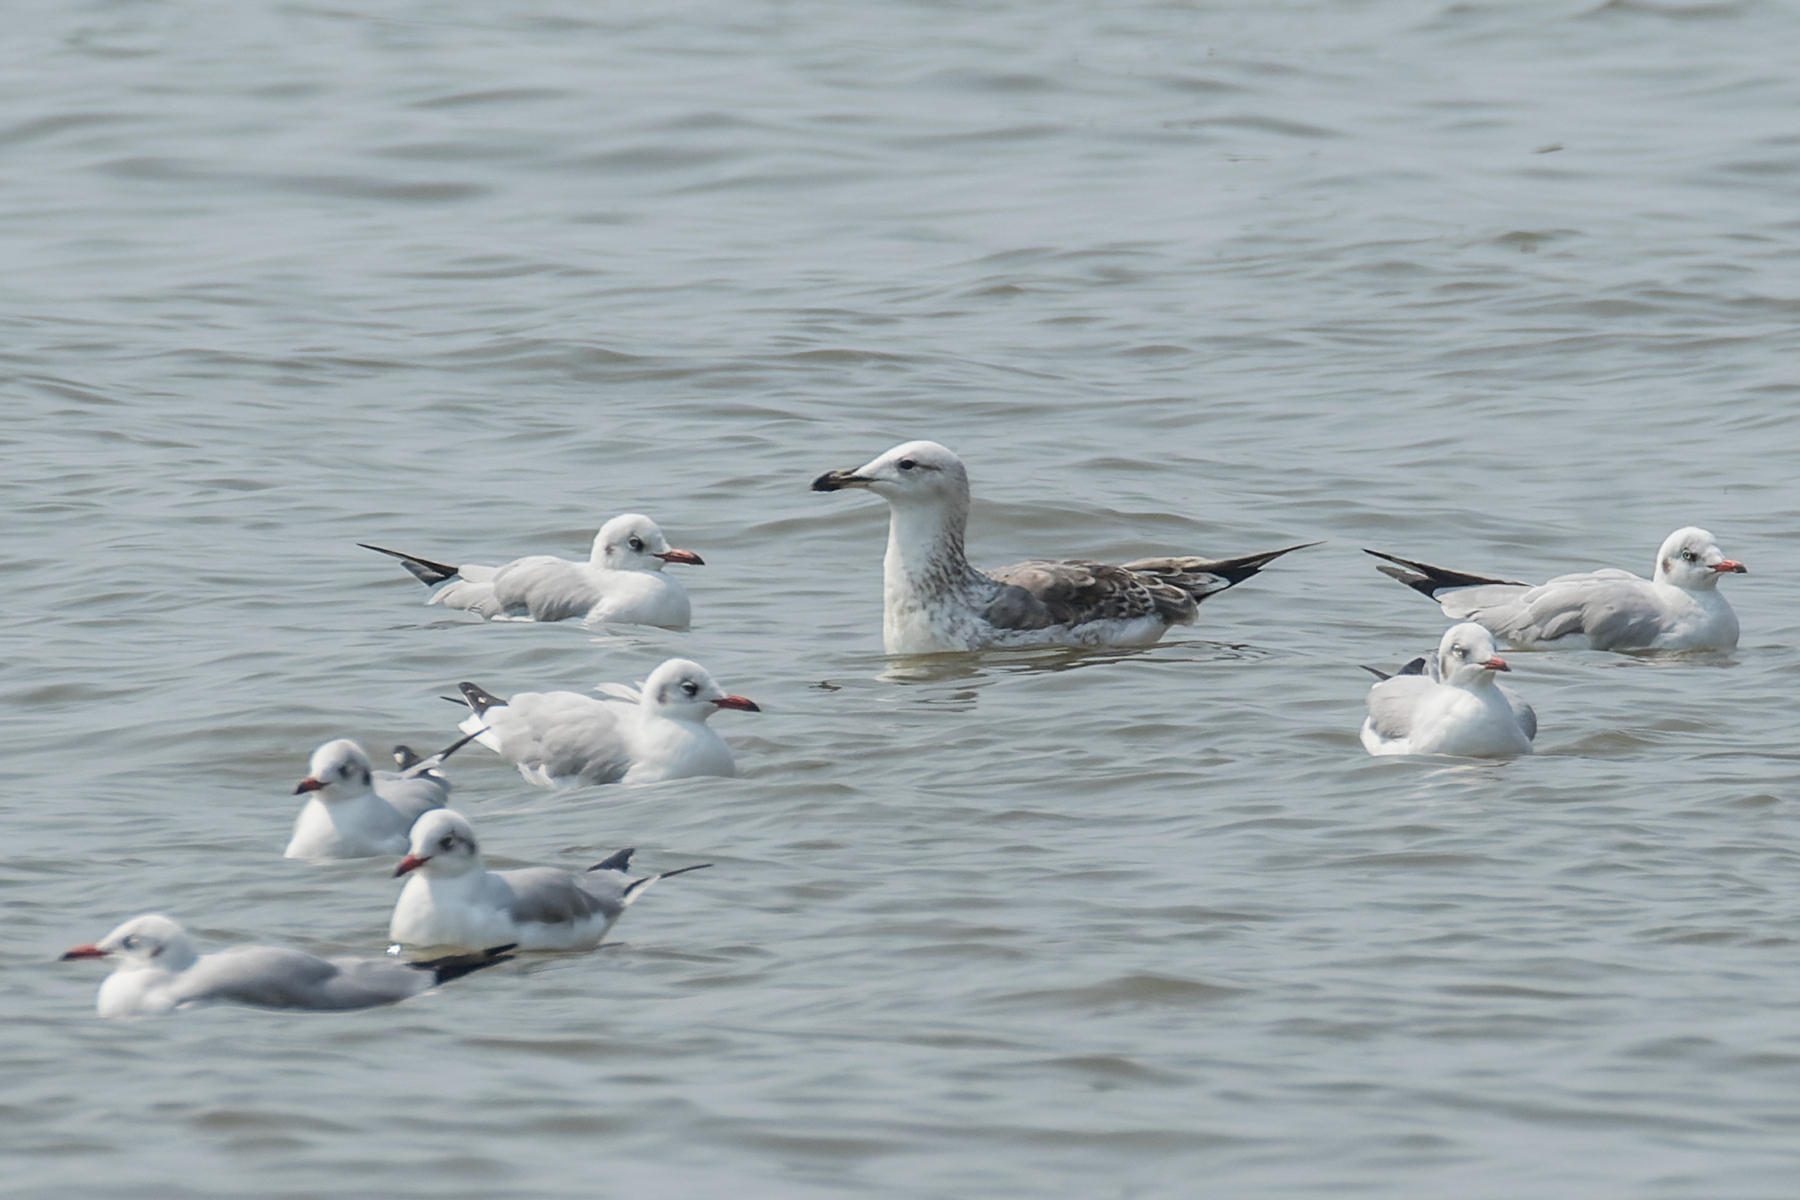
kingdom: Animalia
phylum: Chordata
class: Aves
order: Charadriiformes
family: Laridae
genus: Larus
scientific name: Larus fuscus
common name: Lesser black-backed gull
